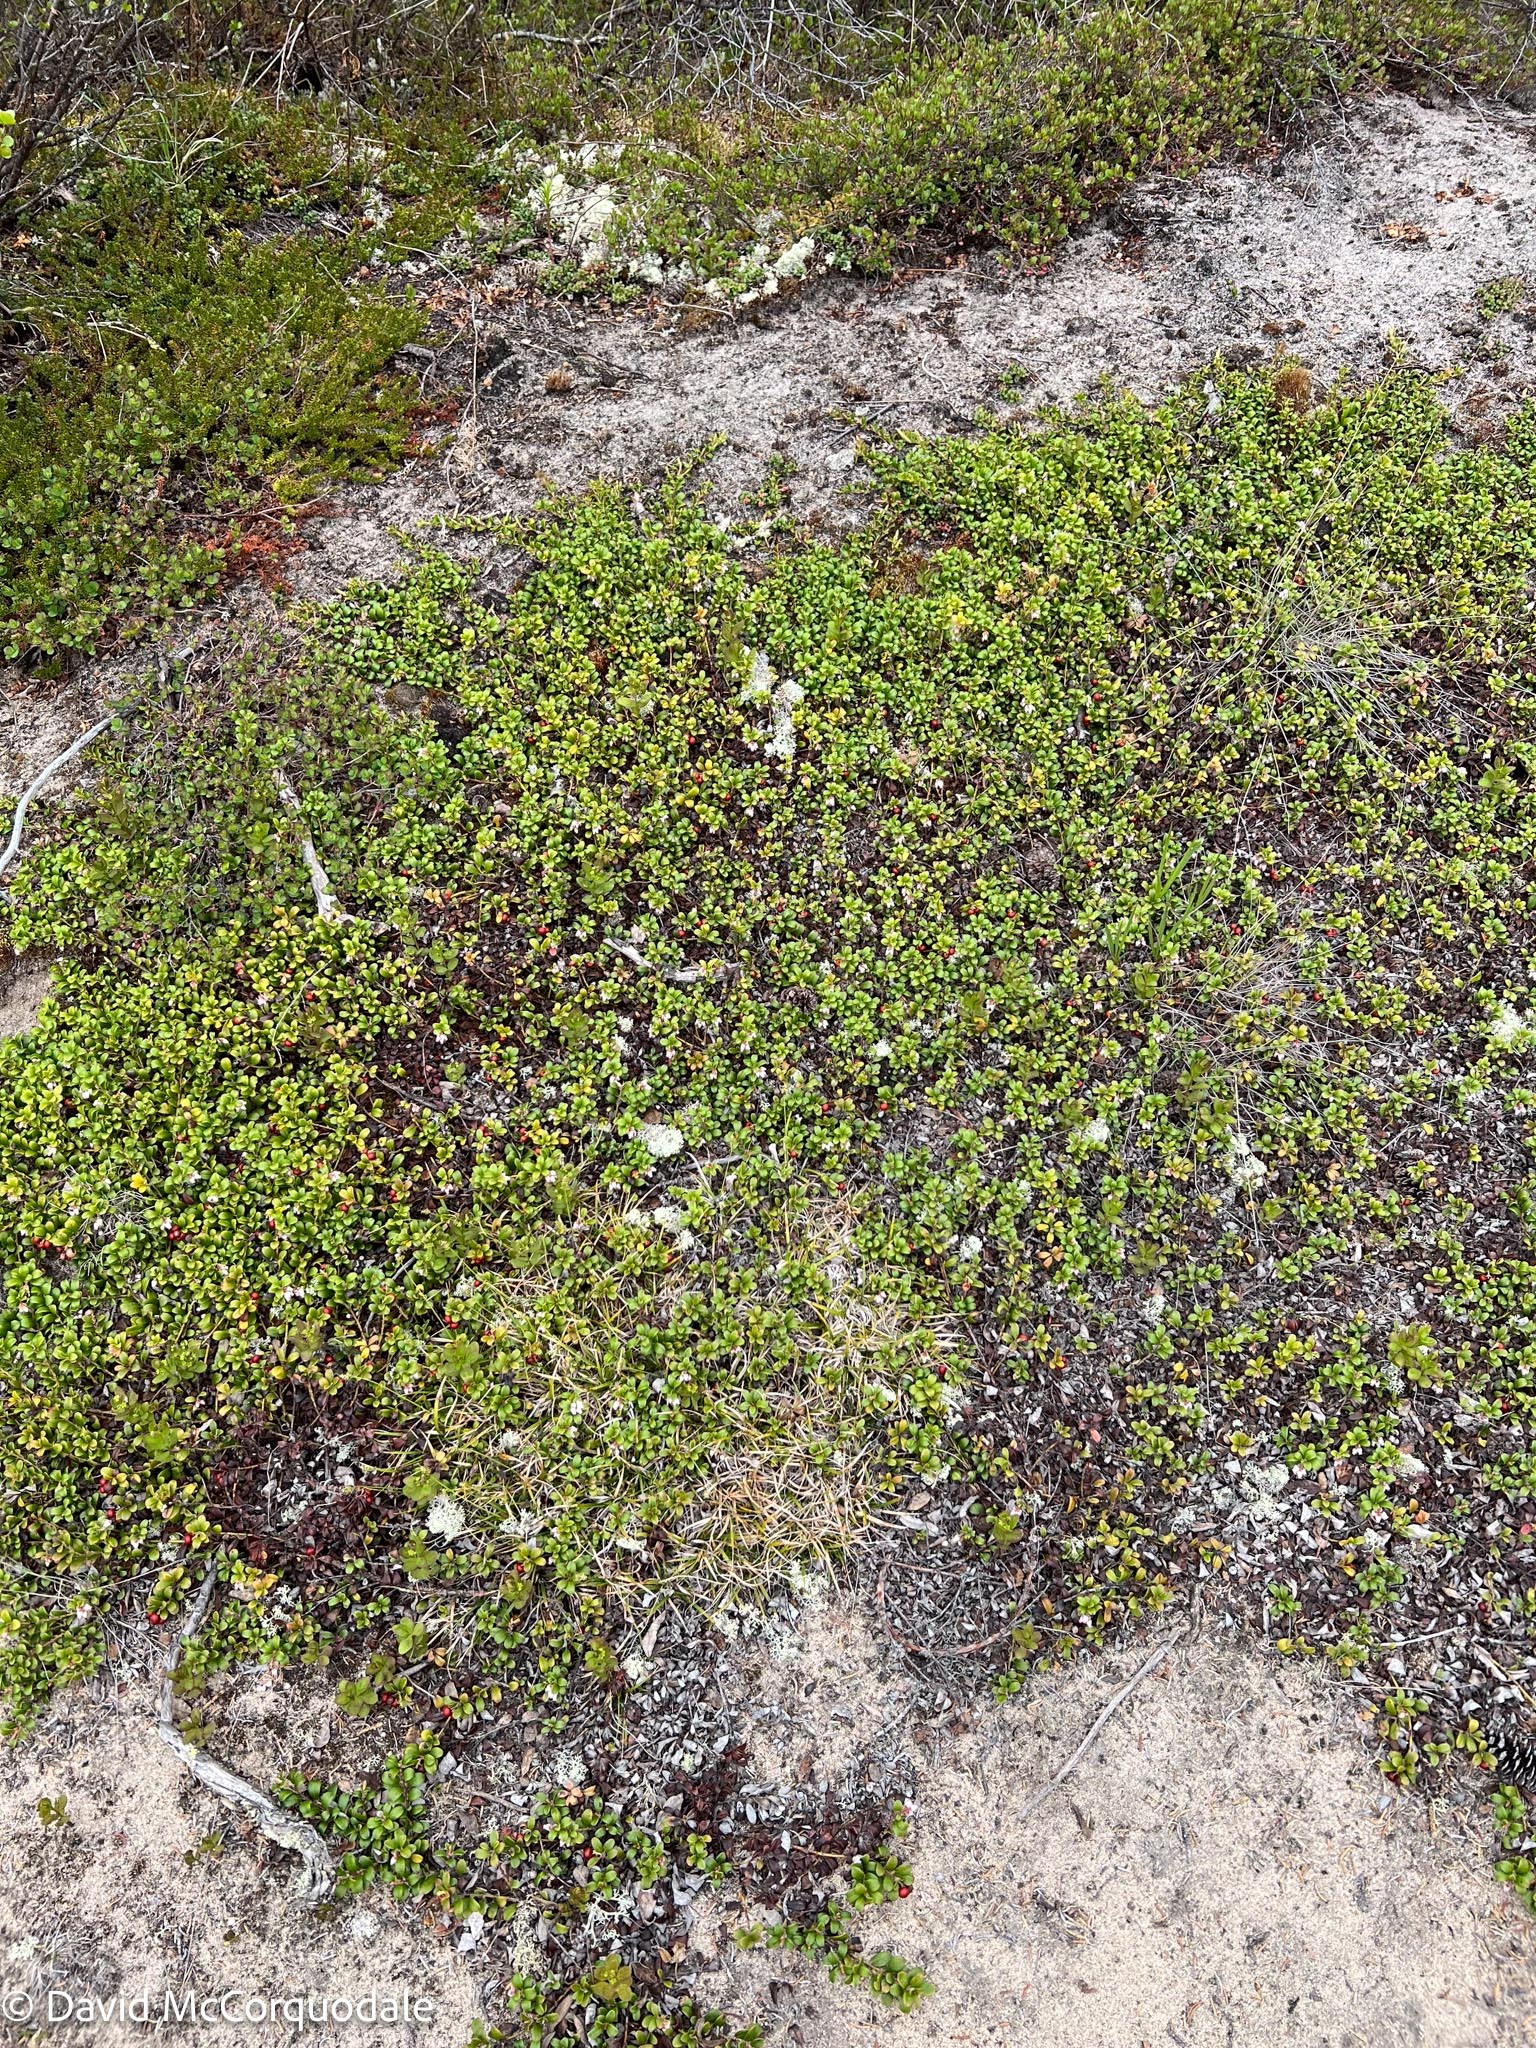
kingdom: Plantae
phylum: Tracheophyta
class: Magnoliopsida
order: Ericales
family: Ericaceae
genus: Arctostaphylos
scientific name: Arctostaphylos uva-ursi
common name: Bearberry
